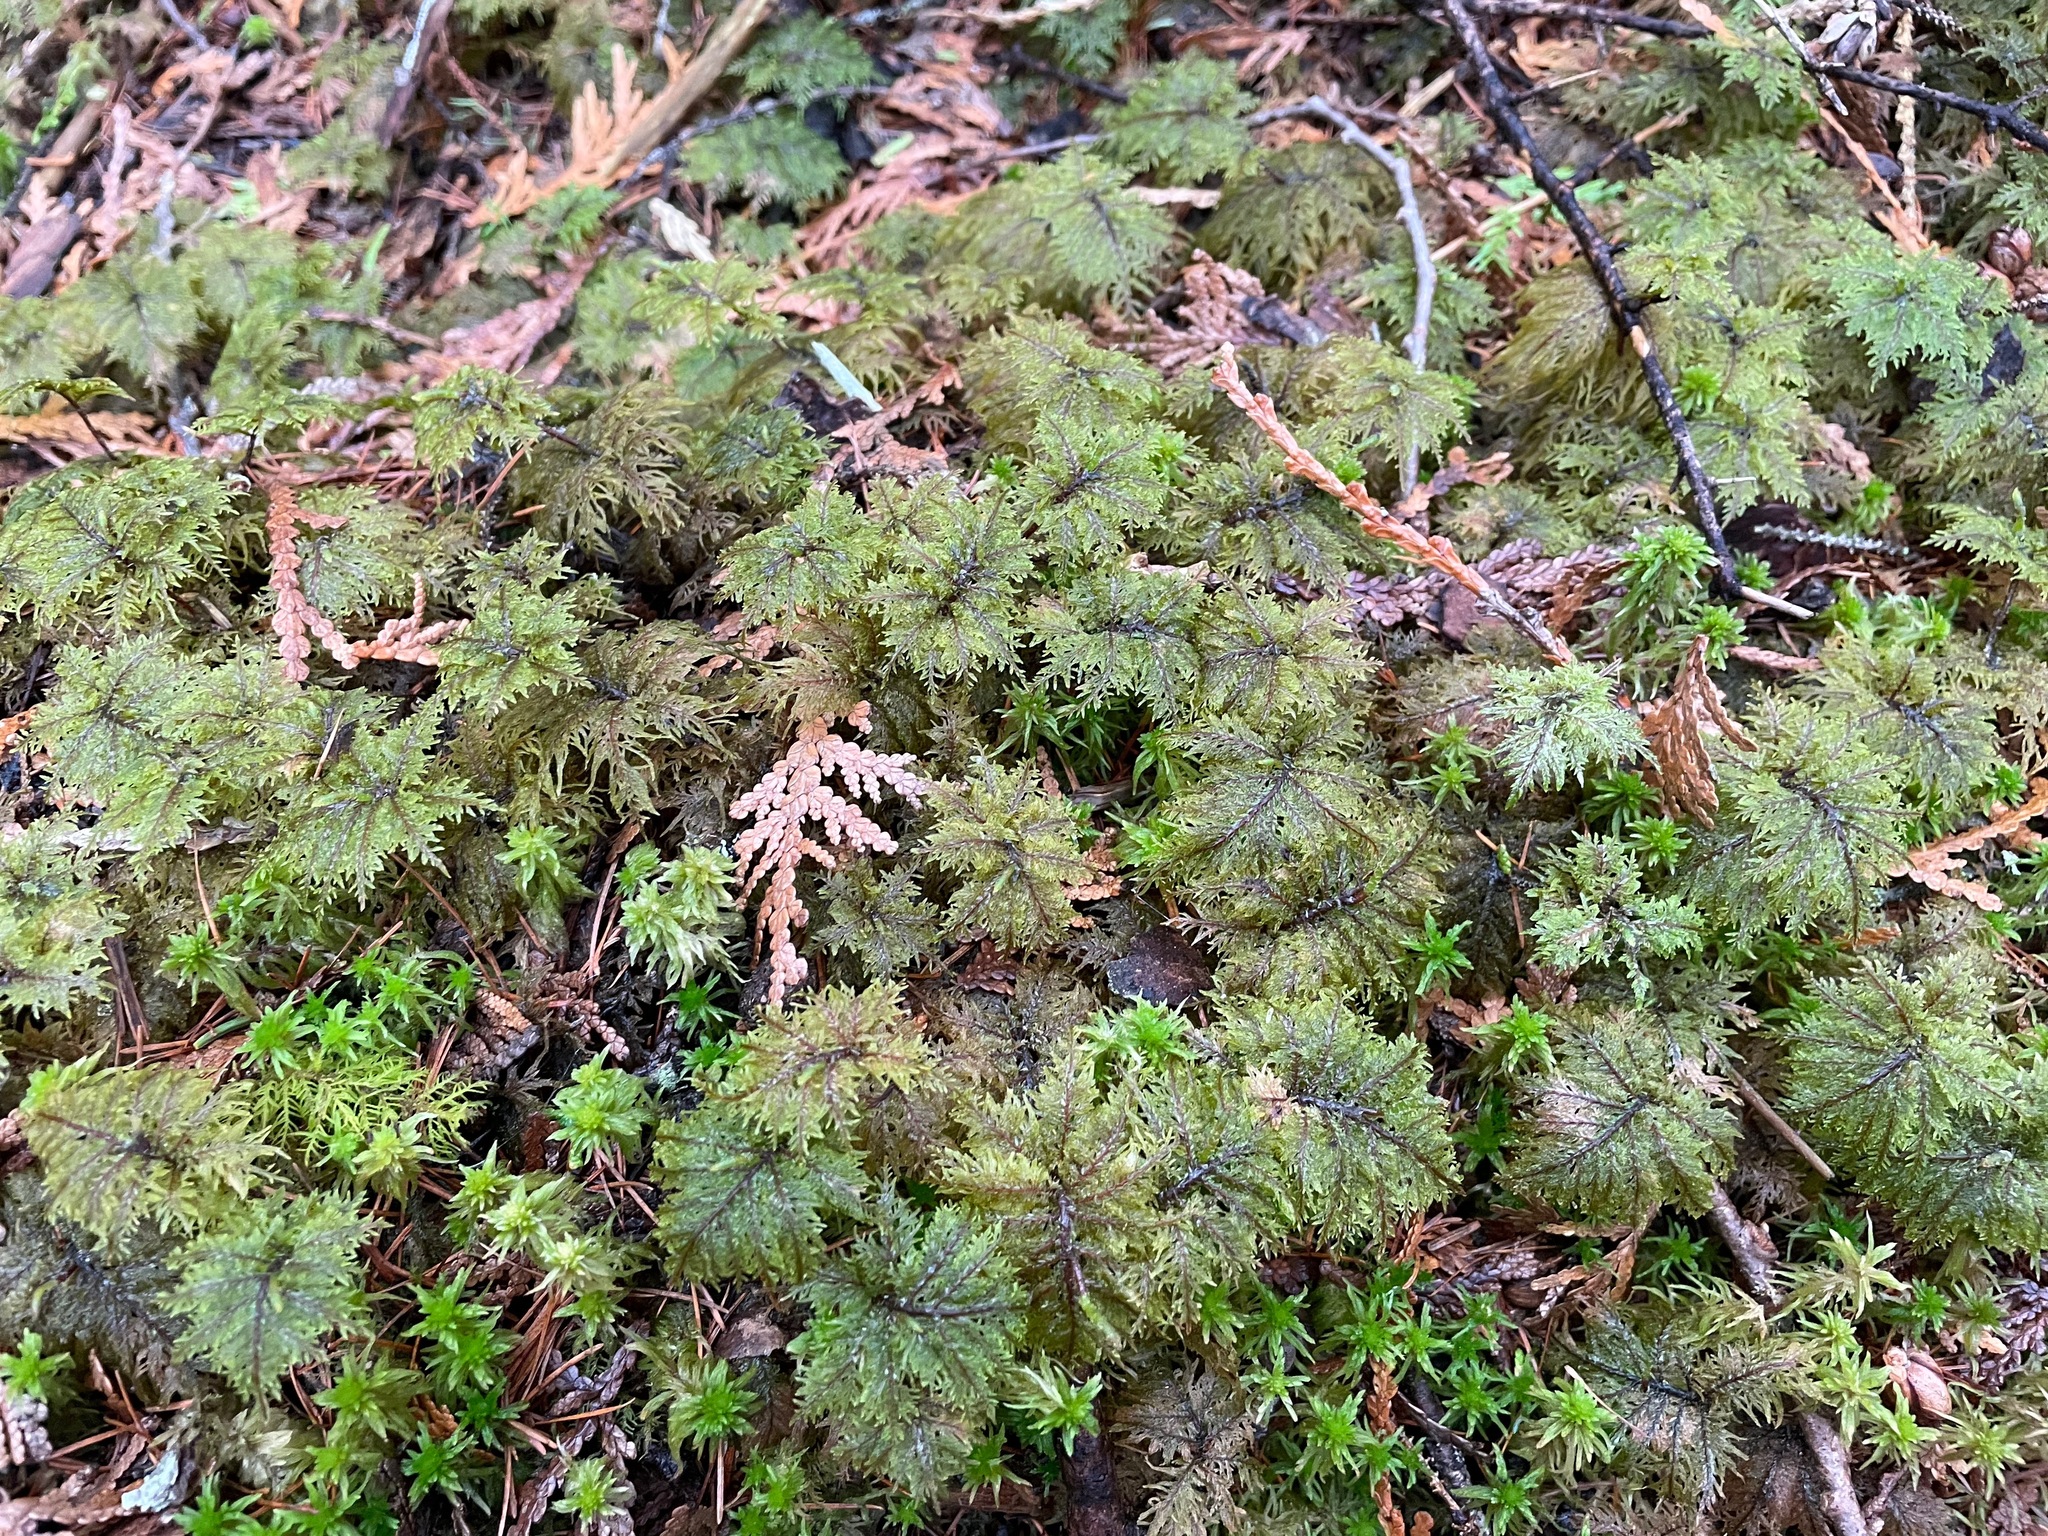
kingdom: Plantae
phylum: Bryophyta
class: Bryopsida
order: Hypnales
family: Hylocomiaceae
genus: Hylocomium
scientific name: Hylocomium splendens
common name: Stairstep moss
